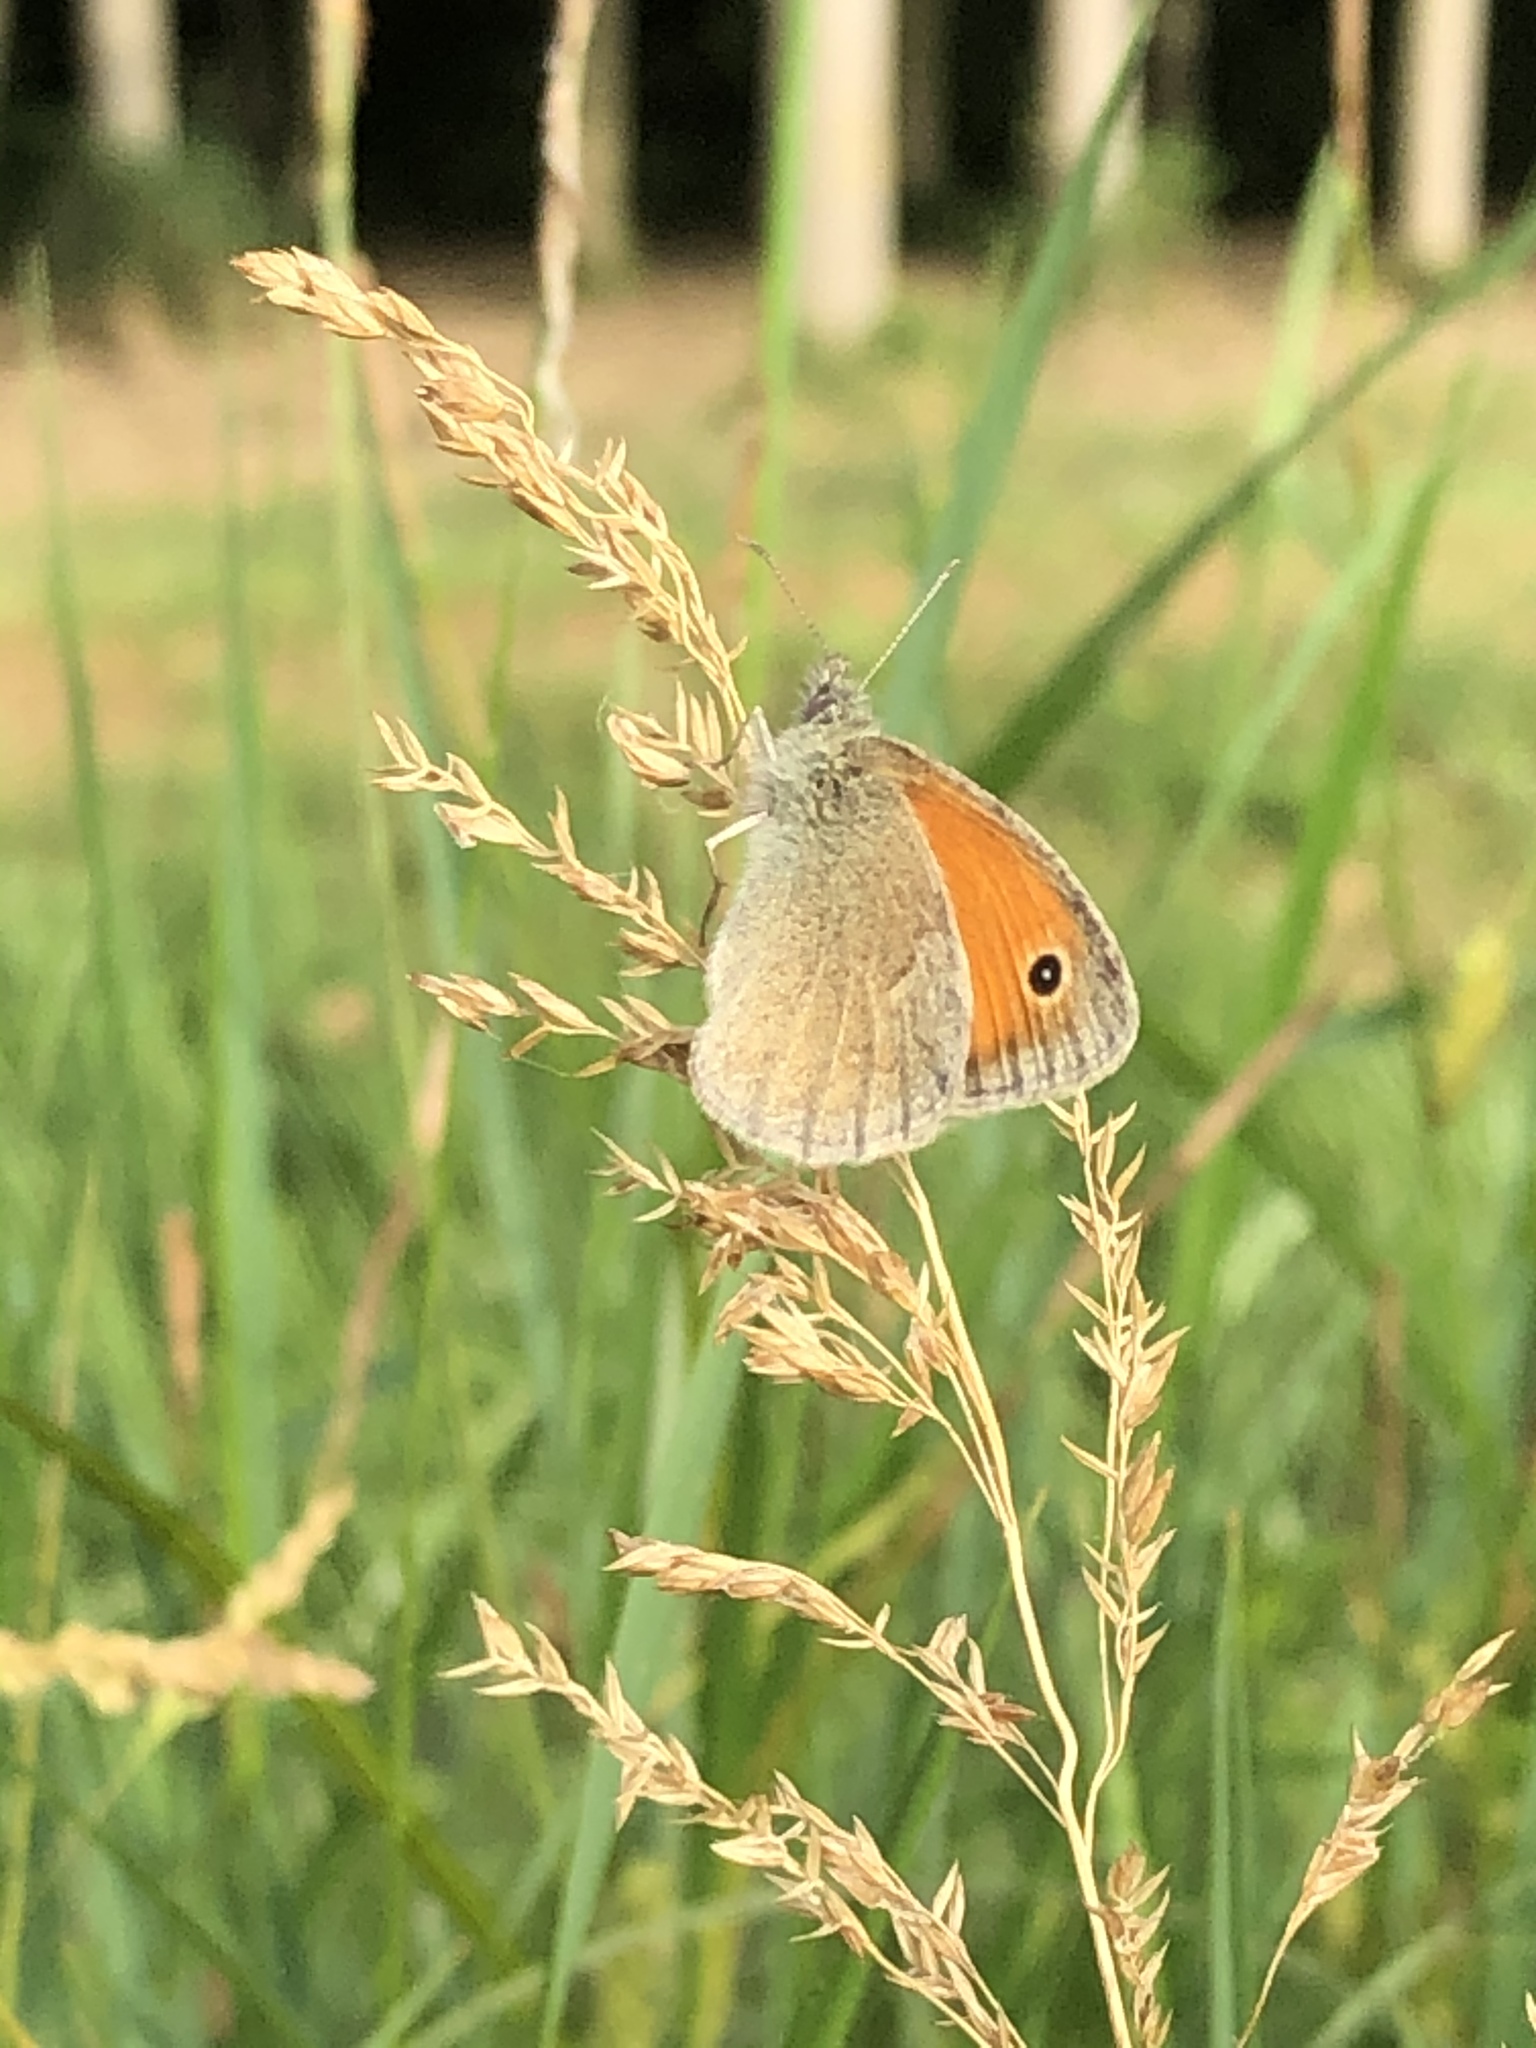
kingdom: Animalia
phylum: Arthropoda
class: Insecta
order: Lepidoptera
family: Nymphalidae
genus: Coenonympha
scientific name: Coenonympha pamphilus
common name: Small heath
